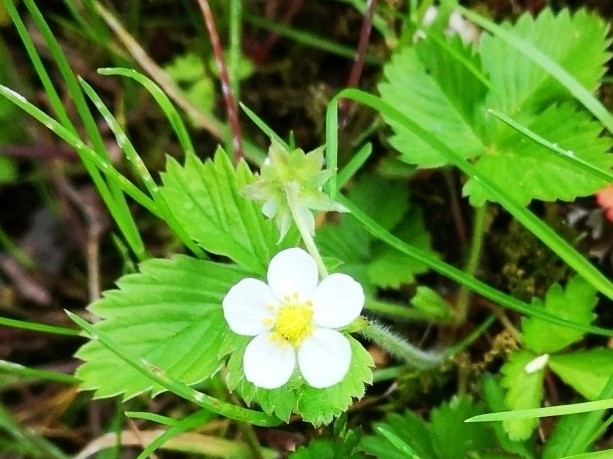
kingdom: Plantae
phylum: Tracheophyta
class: Magnoliopsida
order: Rosales
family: Rosaceae
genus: Fragaria
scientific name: Fragaria vesca
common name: Wild strawberry
